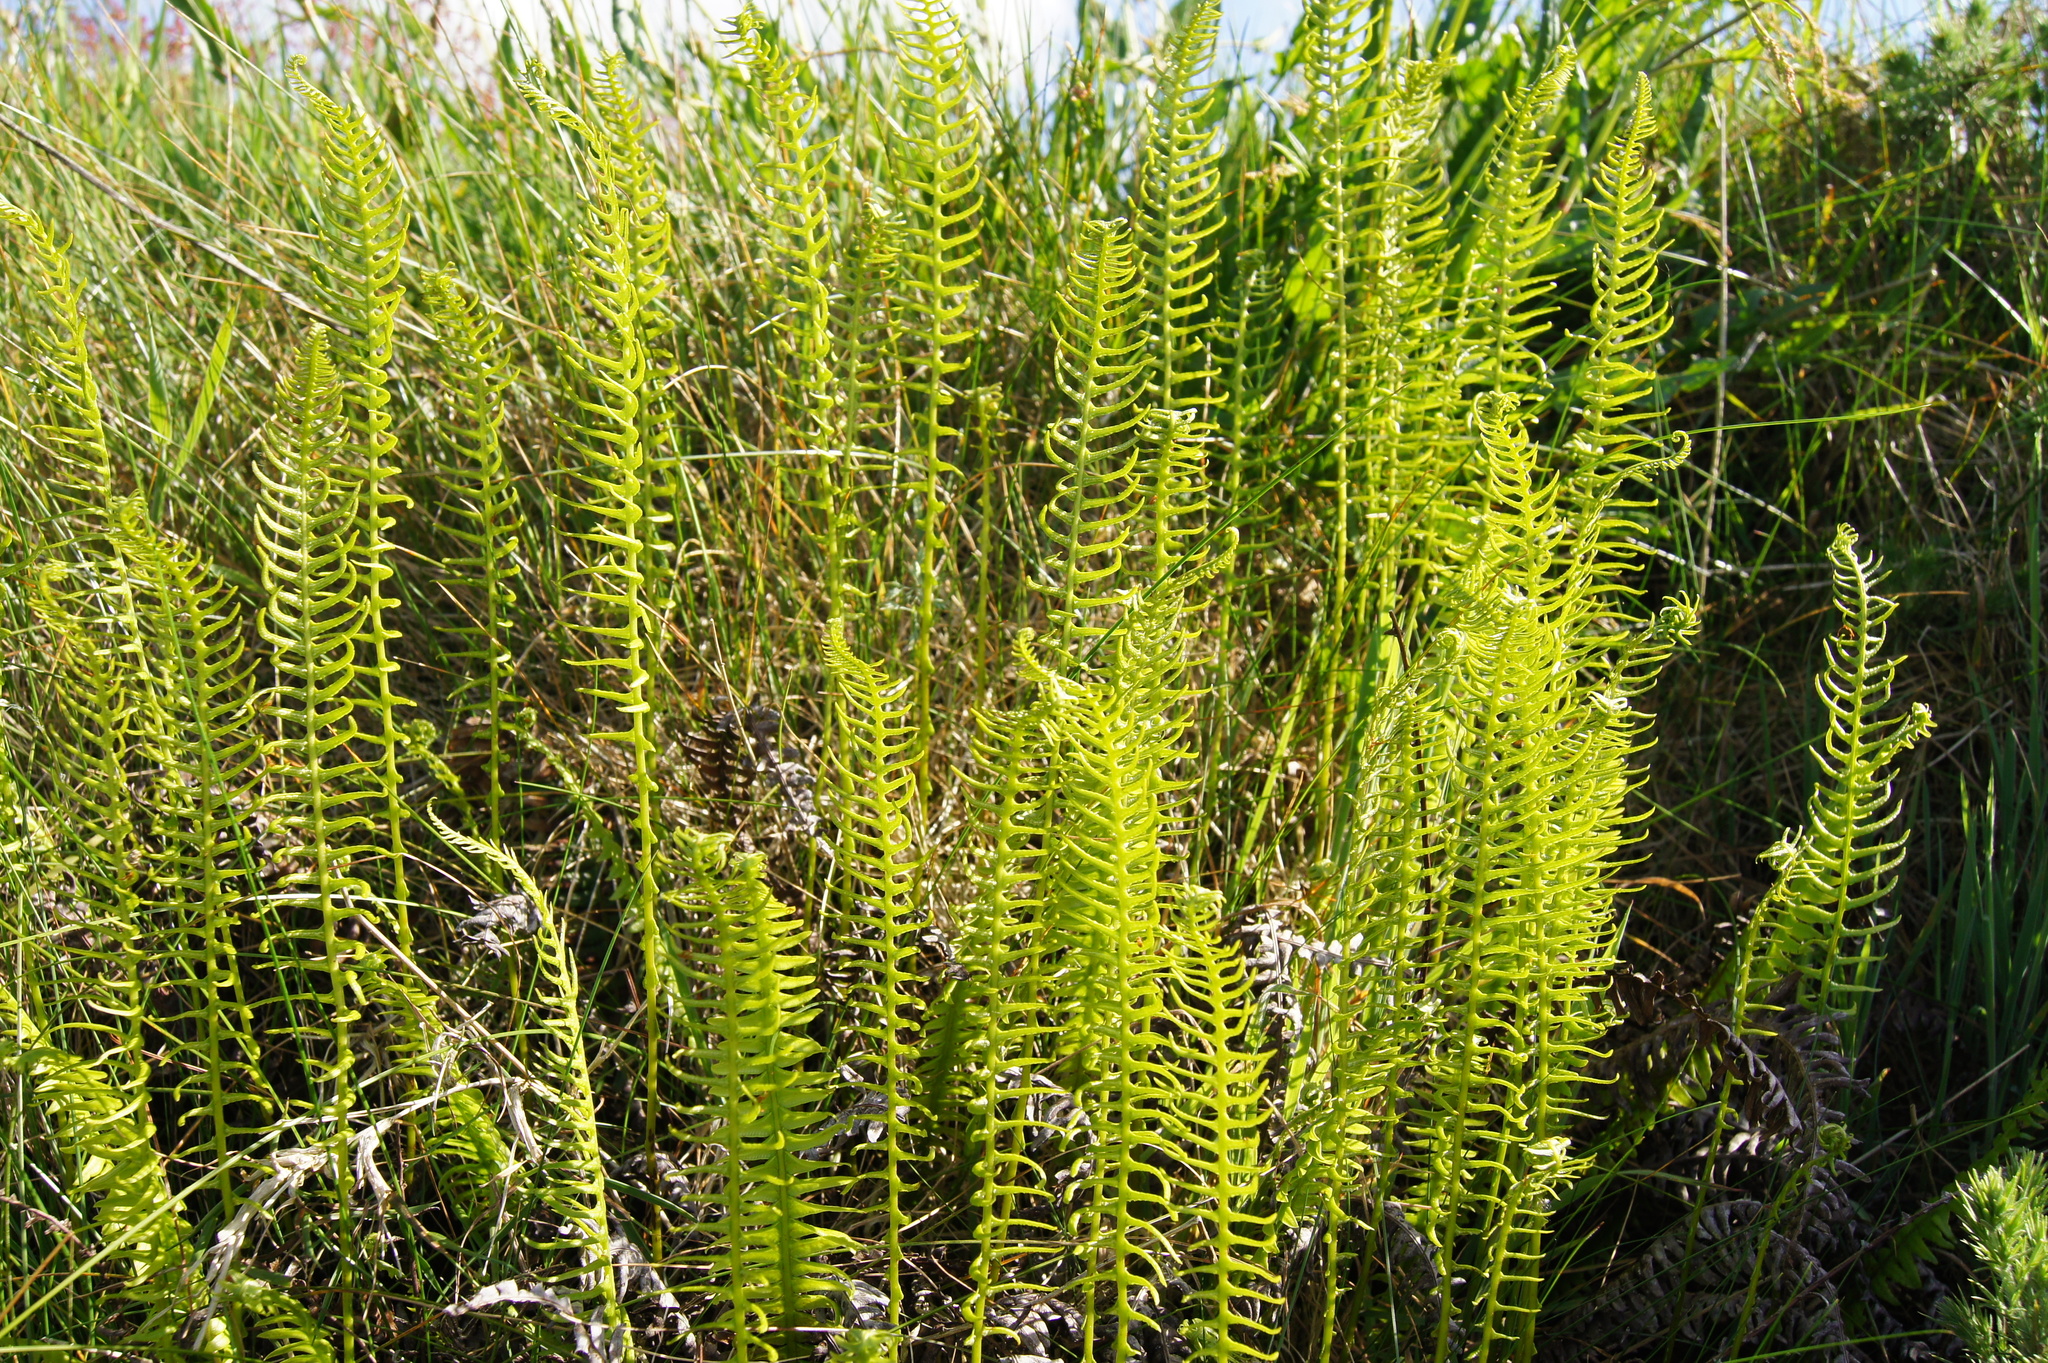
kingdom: Plantae
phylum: Tracheophyta
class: Polypodiopsida
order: Polypodiales
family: Blechnaceae
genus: Struthiopteris
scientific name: Struthiopteris spicant
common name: Deer fern
